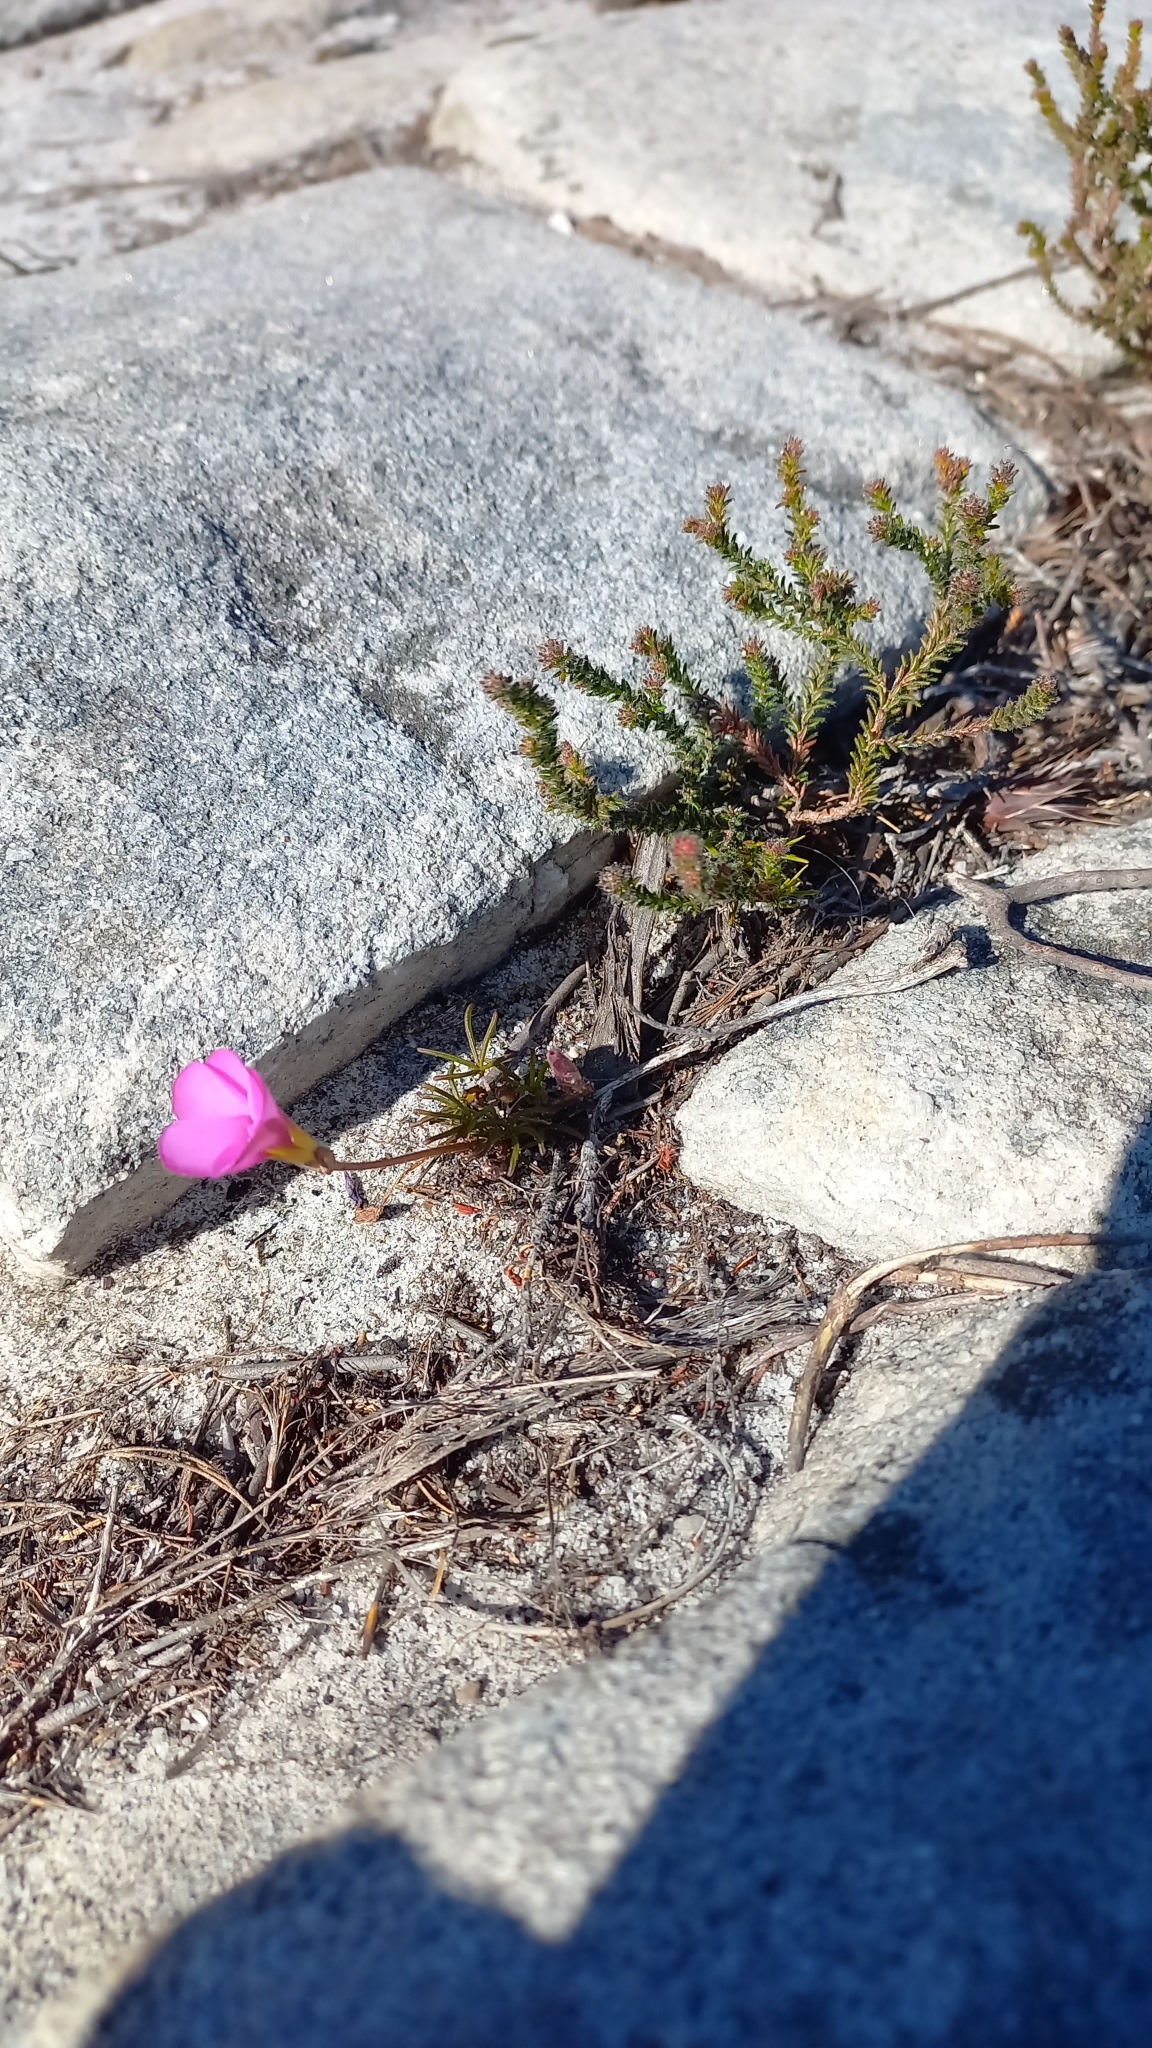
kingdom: Plantae
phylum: Tracheophyta
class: Magnoliopsida
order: Oxalidales
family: Oxalidaceae
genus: Oxalis
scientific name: Oxalis polyphylla
